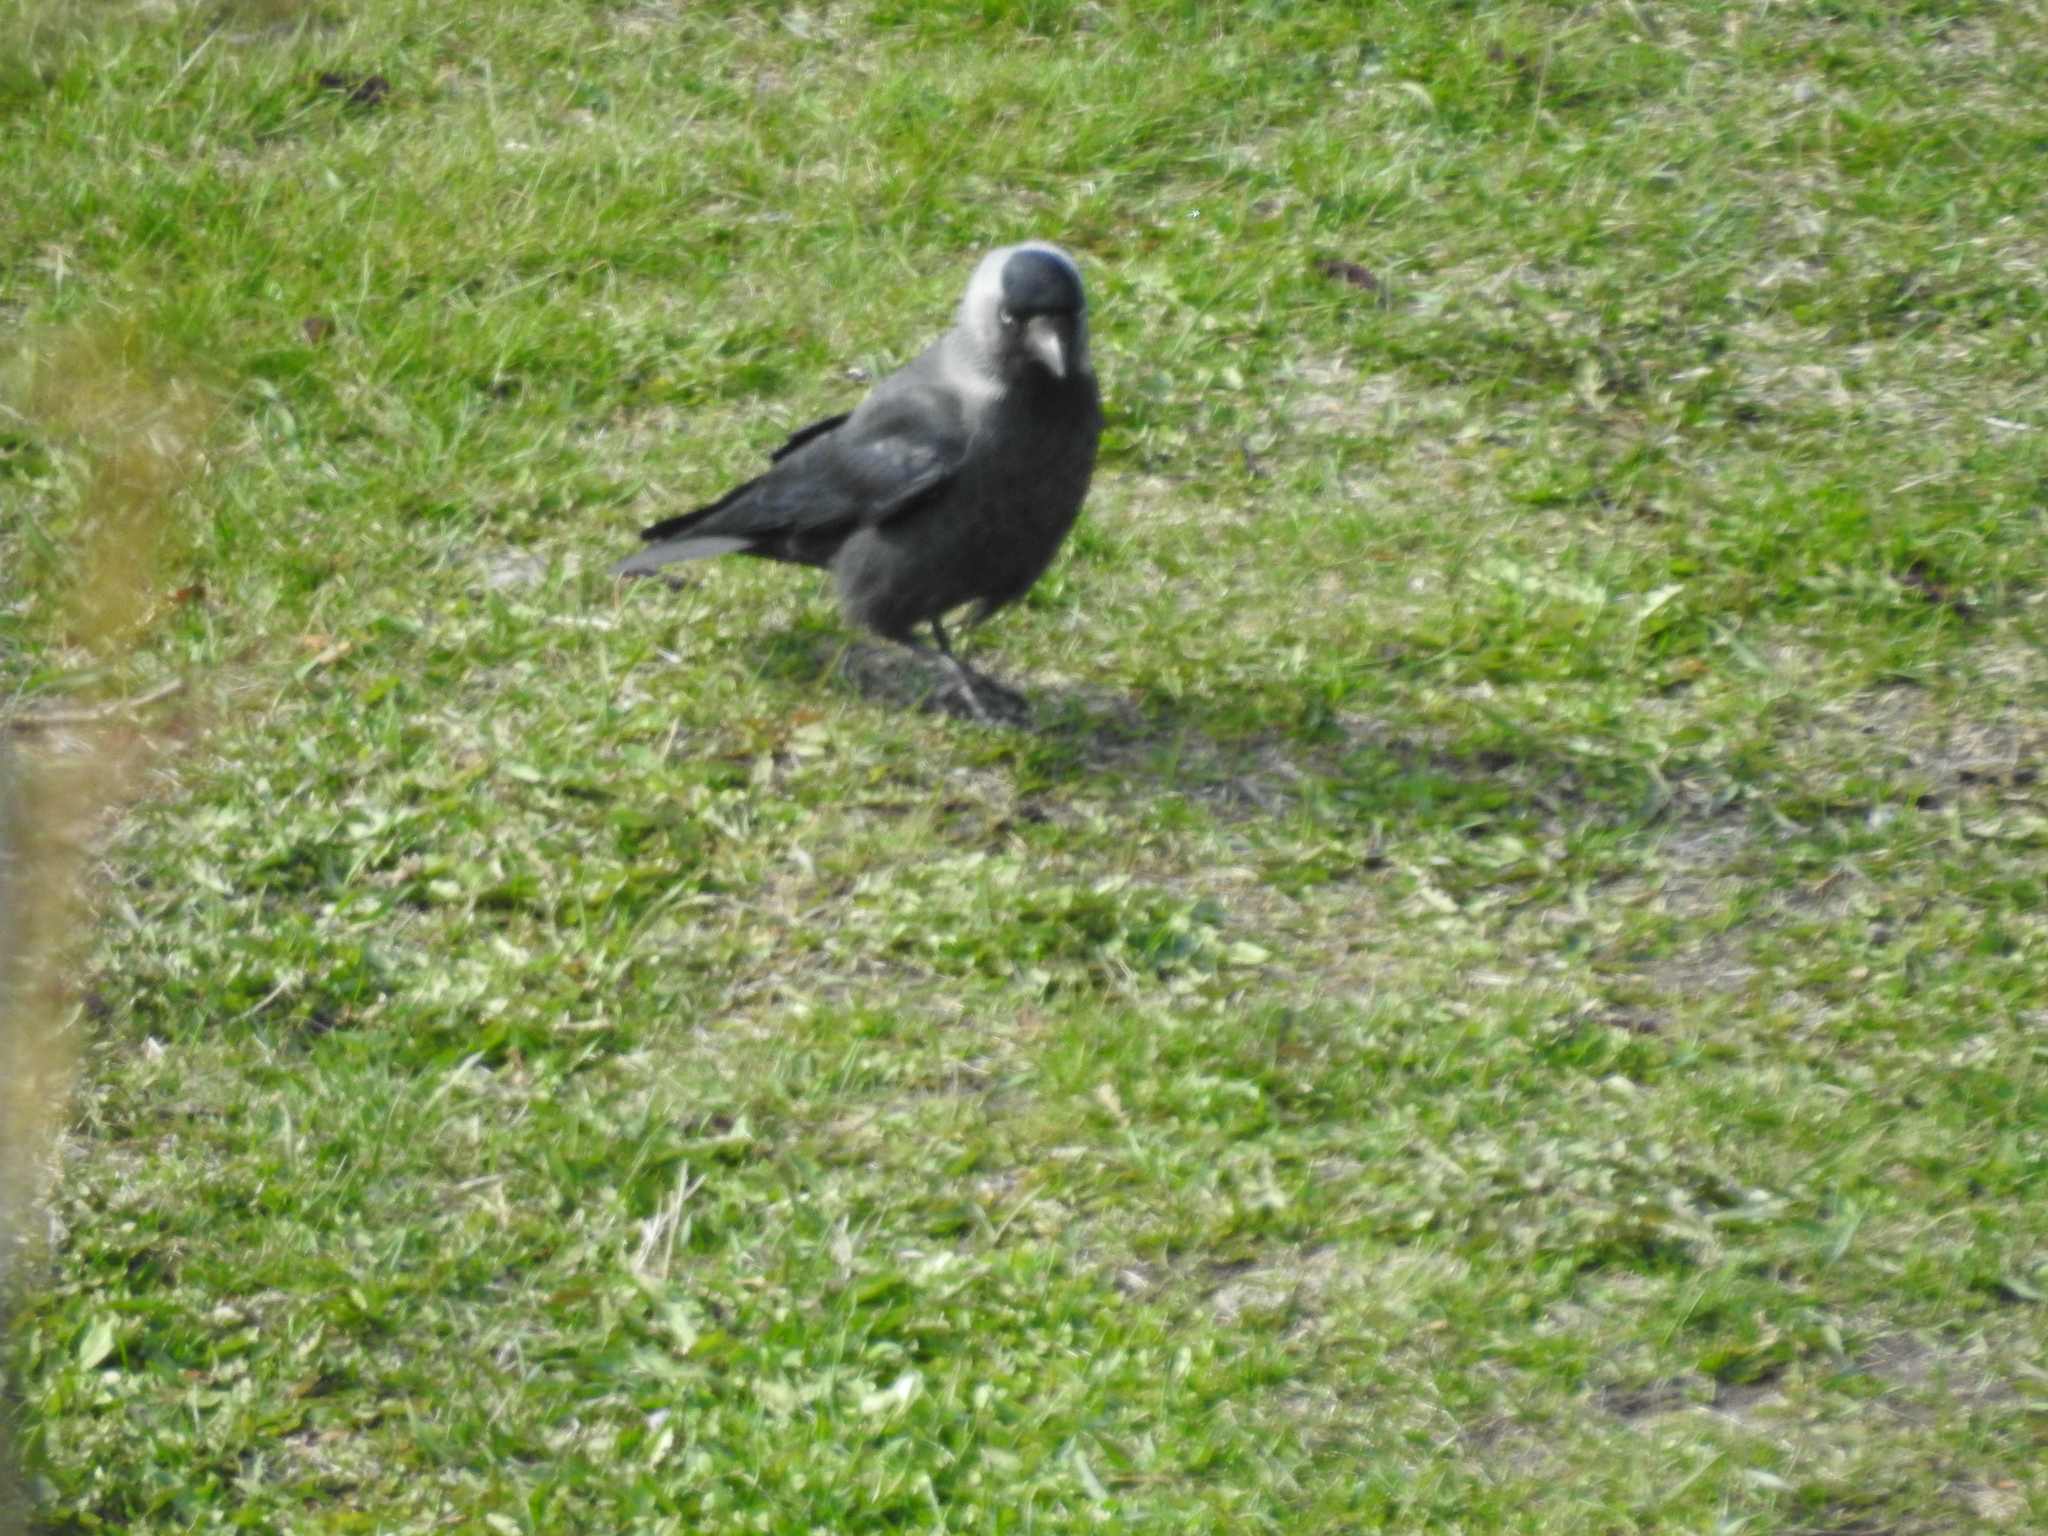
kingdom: Animalia
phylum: Chordata
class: Aves
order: Passeriformes
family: Corvidae
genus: Coloeus
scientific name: Coloeus monedula
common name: Western jackdaw
